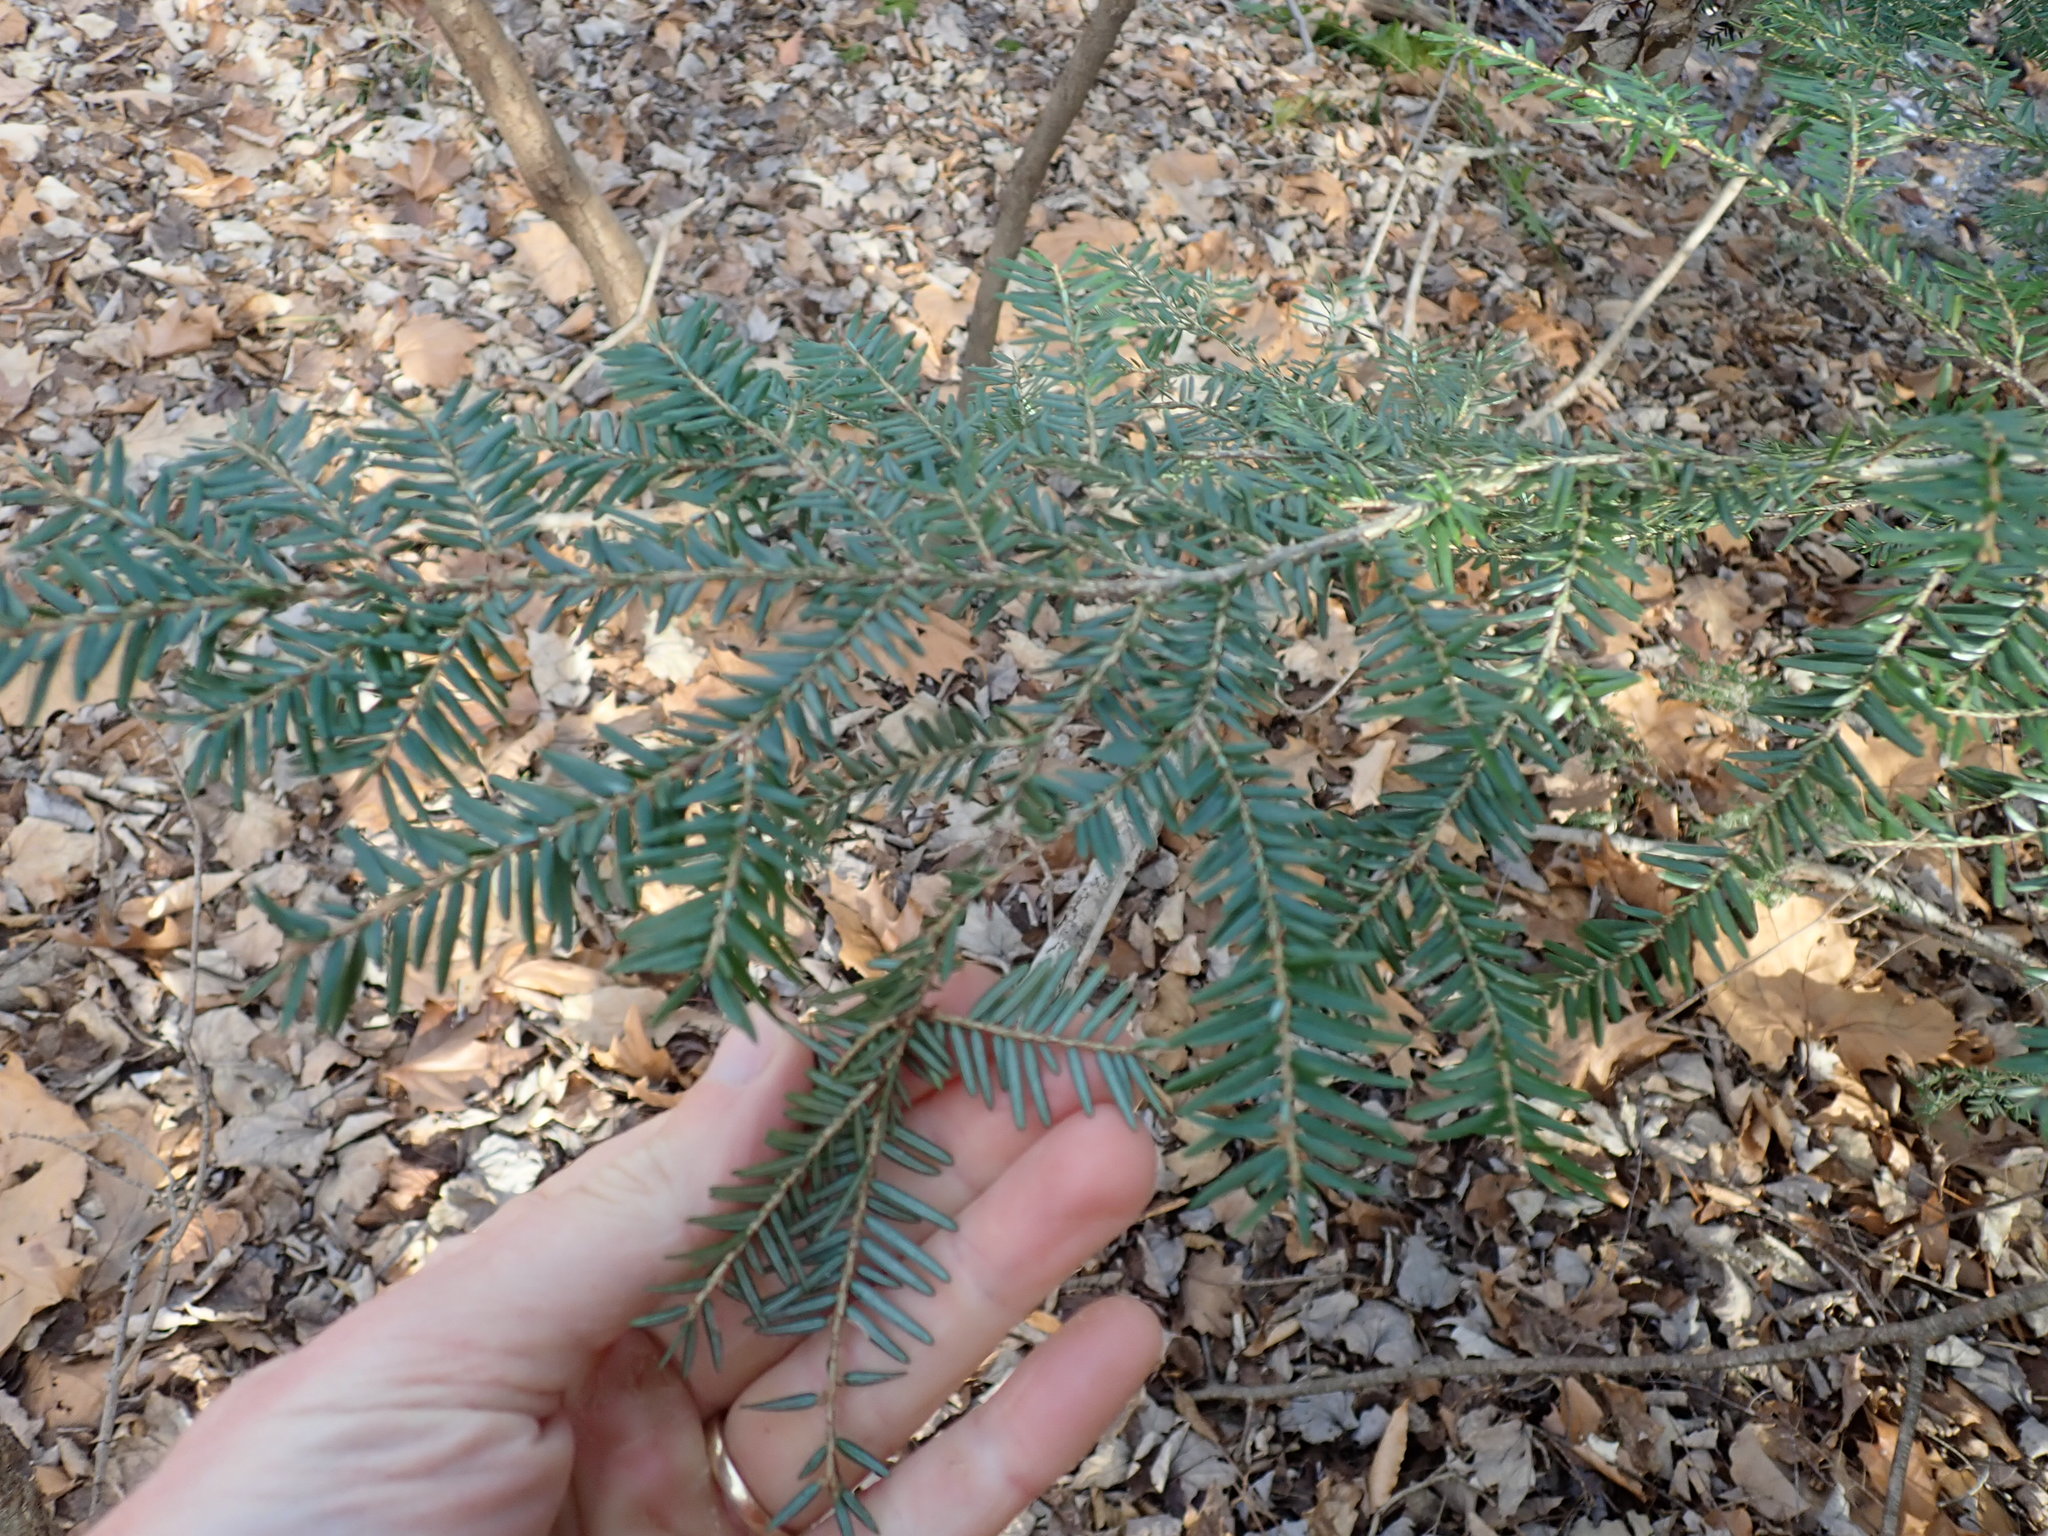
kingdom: Plantae
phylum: Tracheophyta
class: Pinopsida
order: Pinales
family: Pinaceae
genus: Tsuga
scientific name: Tsuga canadensis
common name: Eastern hemlock
